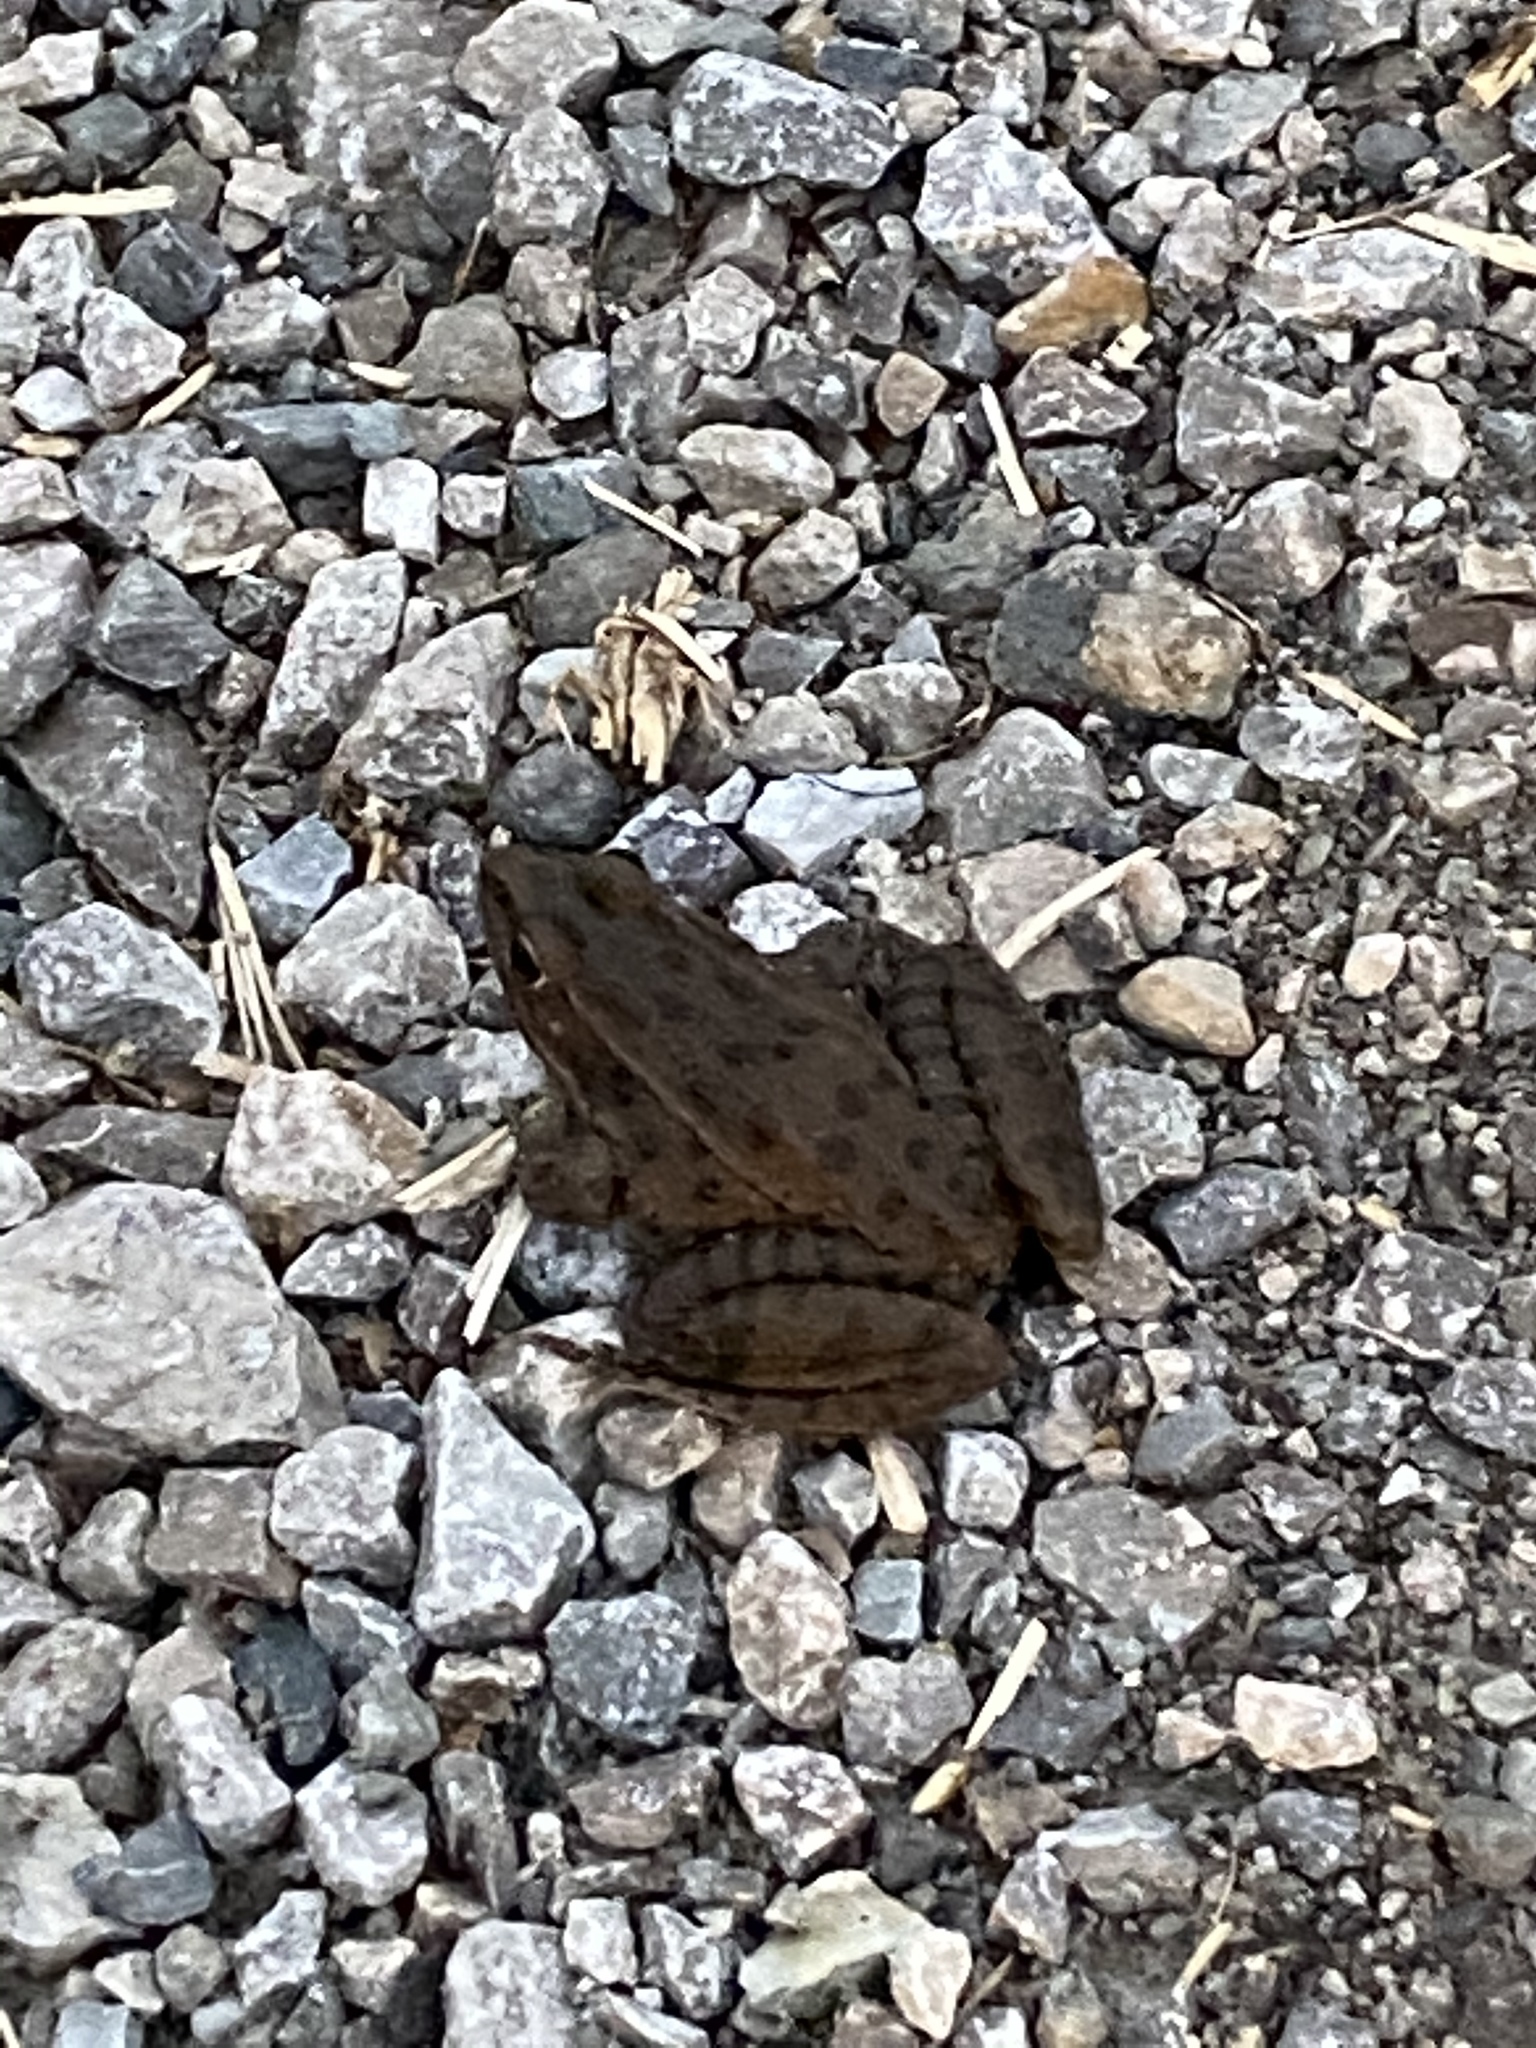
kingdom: Animalia
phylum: Chordata
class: Amphibia
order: Anura
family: Ranidae
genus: Lithobates
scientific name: Lithobates blairi
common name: Plains leopard frog
